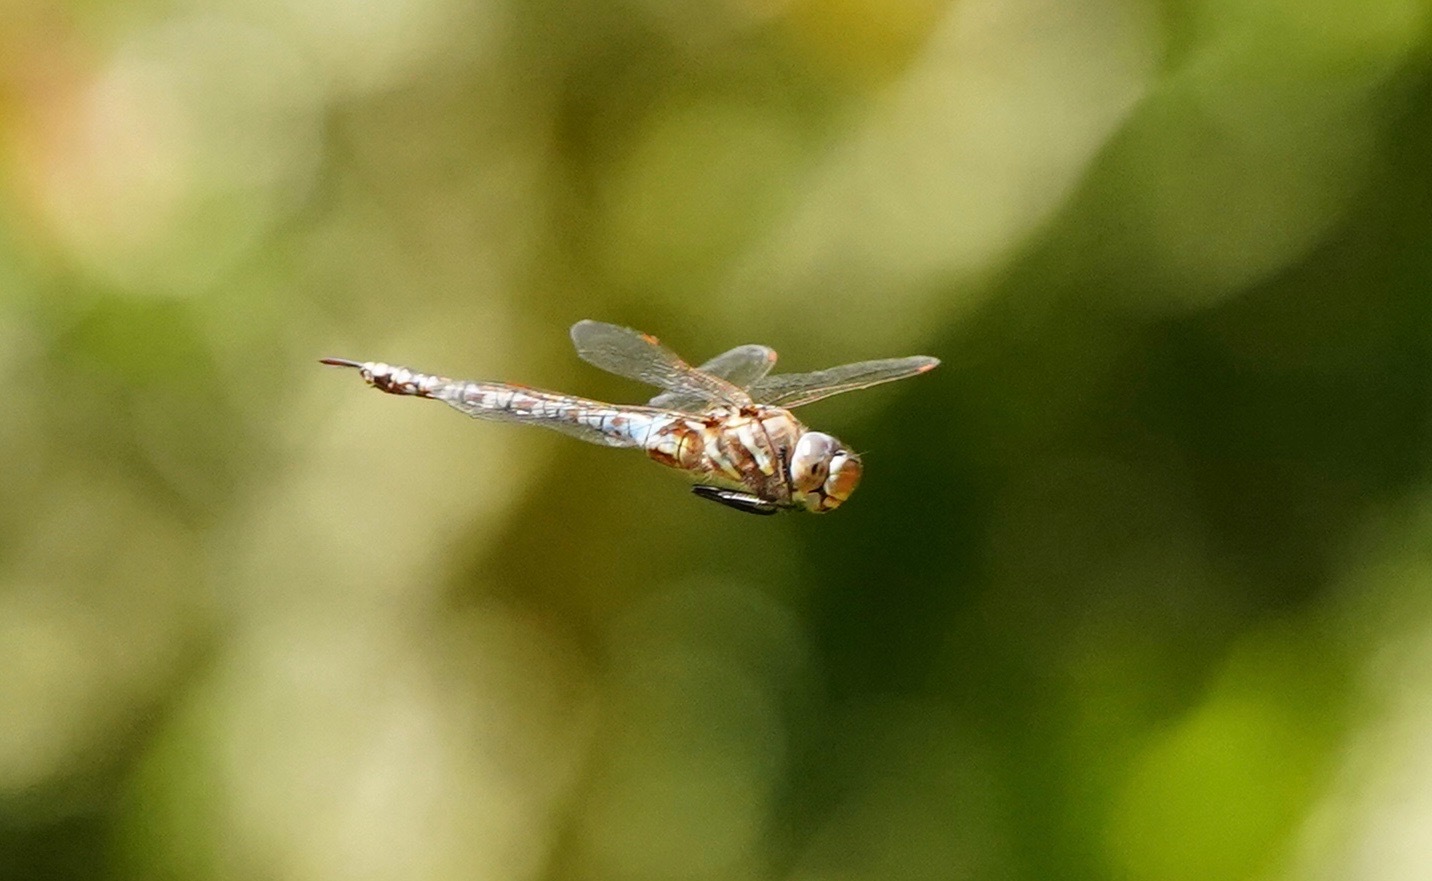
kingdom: Animalia
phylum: Arthropoda
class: Insecta
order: Odonata
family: Aeshnidae
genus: Rhionaeschna
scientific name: Rhionaeschna multicolor
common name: Blue-eyed darner
